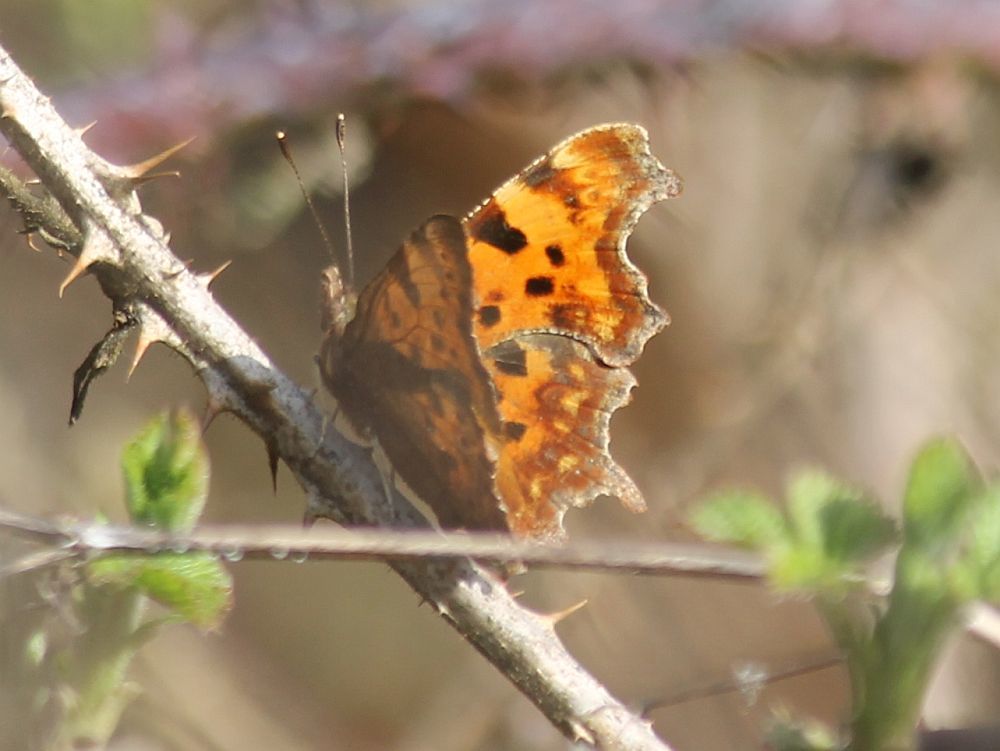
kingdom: Animalia
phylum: Arthropoda
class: Insecta
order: Lepidoptera
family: Nymphalidae
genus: Polygonia
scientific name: Polygonia c-album
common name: Comma
